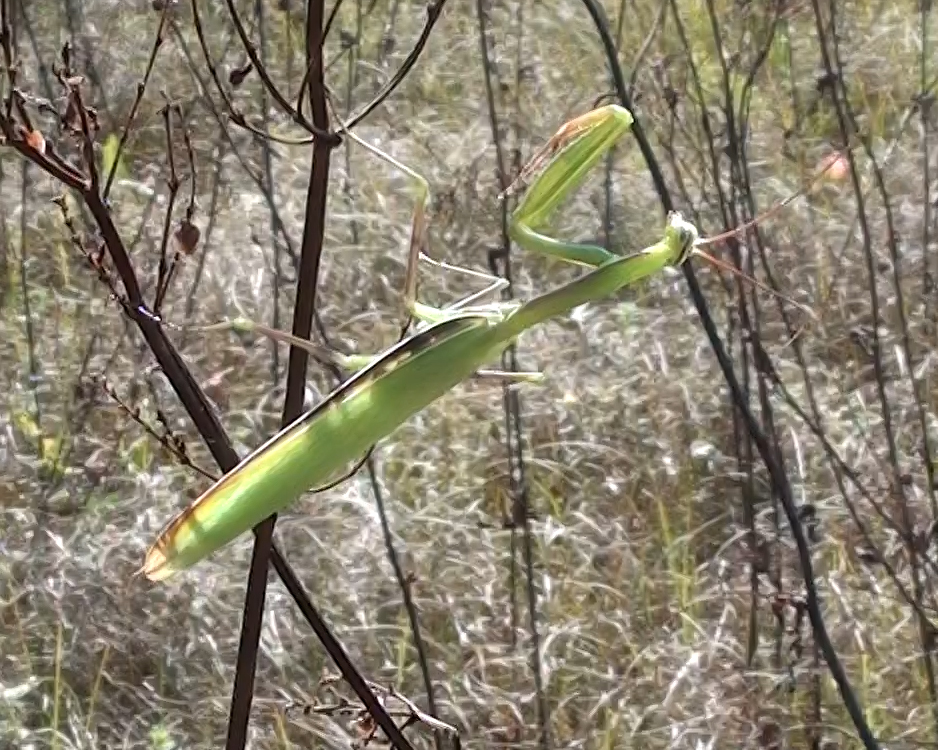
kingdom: Animalia
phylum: Arthropoda
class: Insecta
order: Mantodea
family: Mantidae
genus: Mantis
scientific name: Mantis religiosa
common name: Praying mantis
